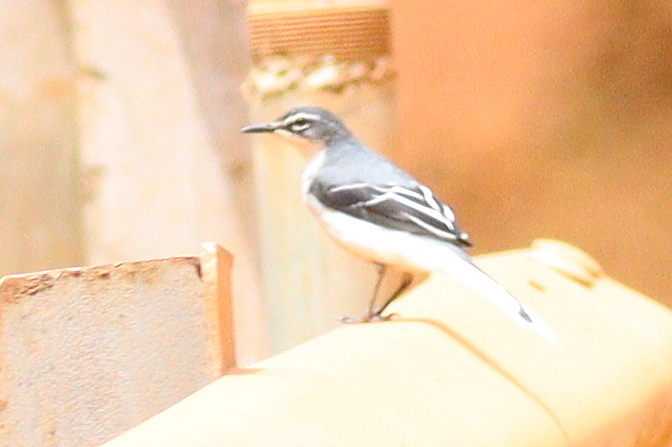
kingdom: Animalia
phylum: Chordata
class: Aves
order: Passeriformes
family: Motacillidae
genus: Motacilla
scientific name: Motacilla clara
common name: Mountain wagtail
